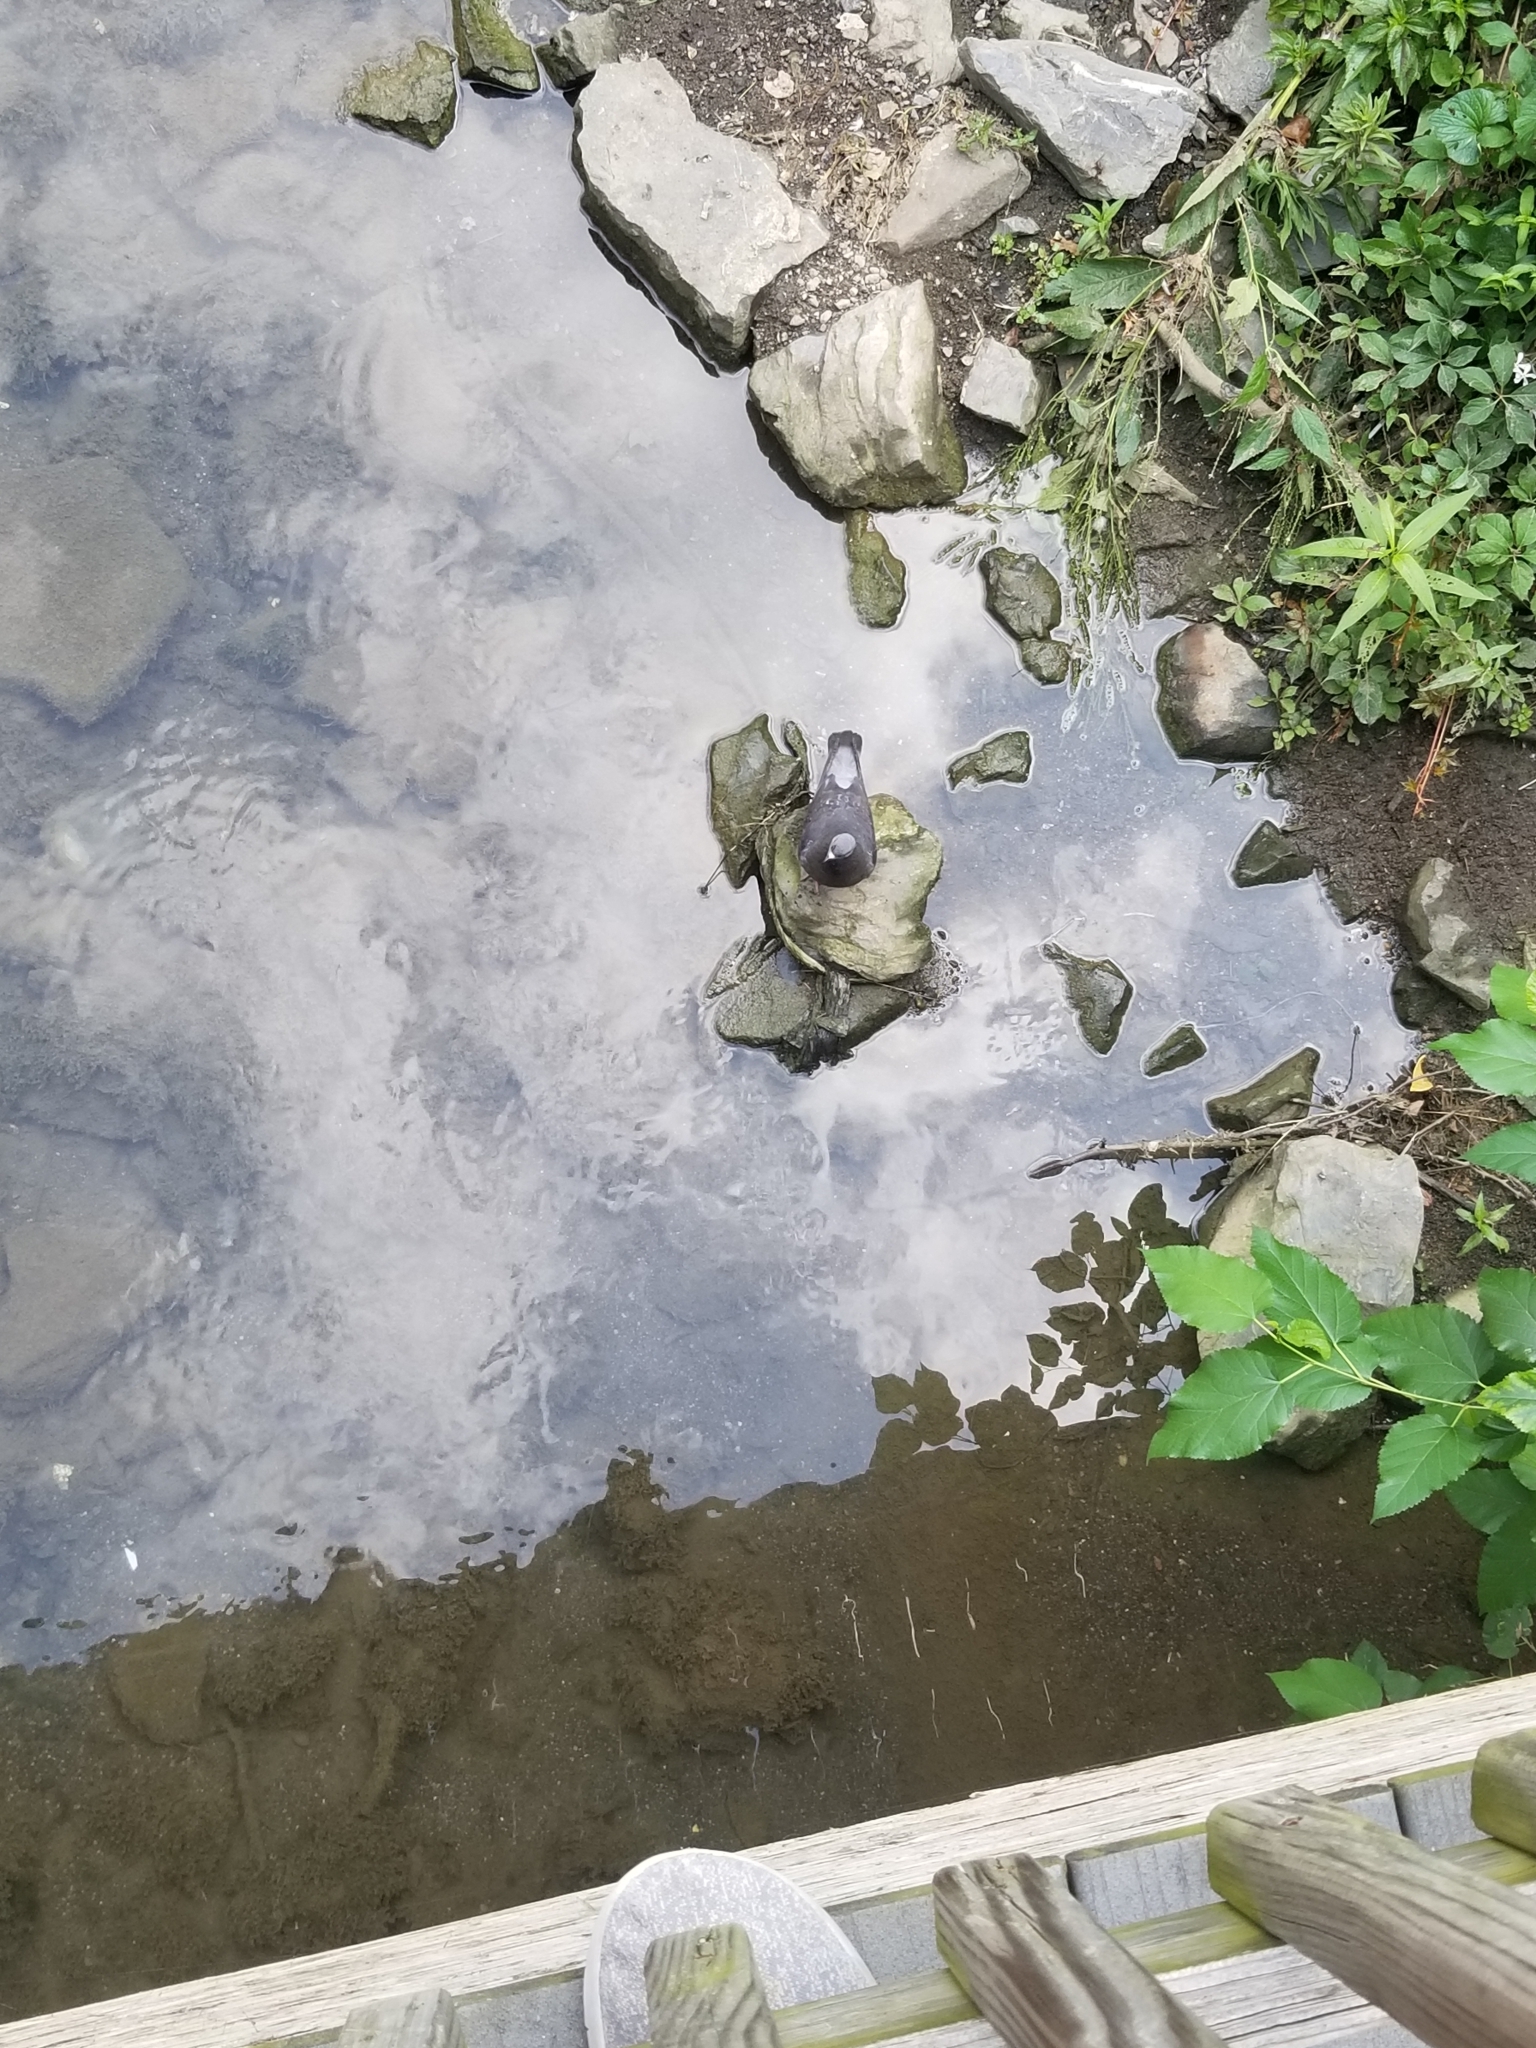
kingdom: Animalia
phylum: Chordata
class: Aves
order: Columbiformes
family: Columbidae
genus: Columba
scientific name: Columba livia
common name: Rock pigeon
